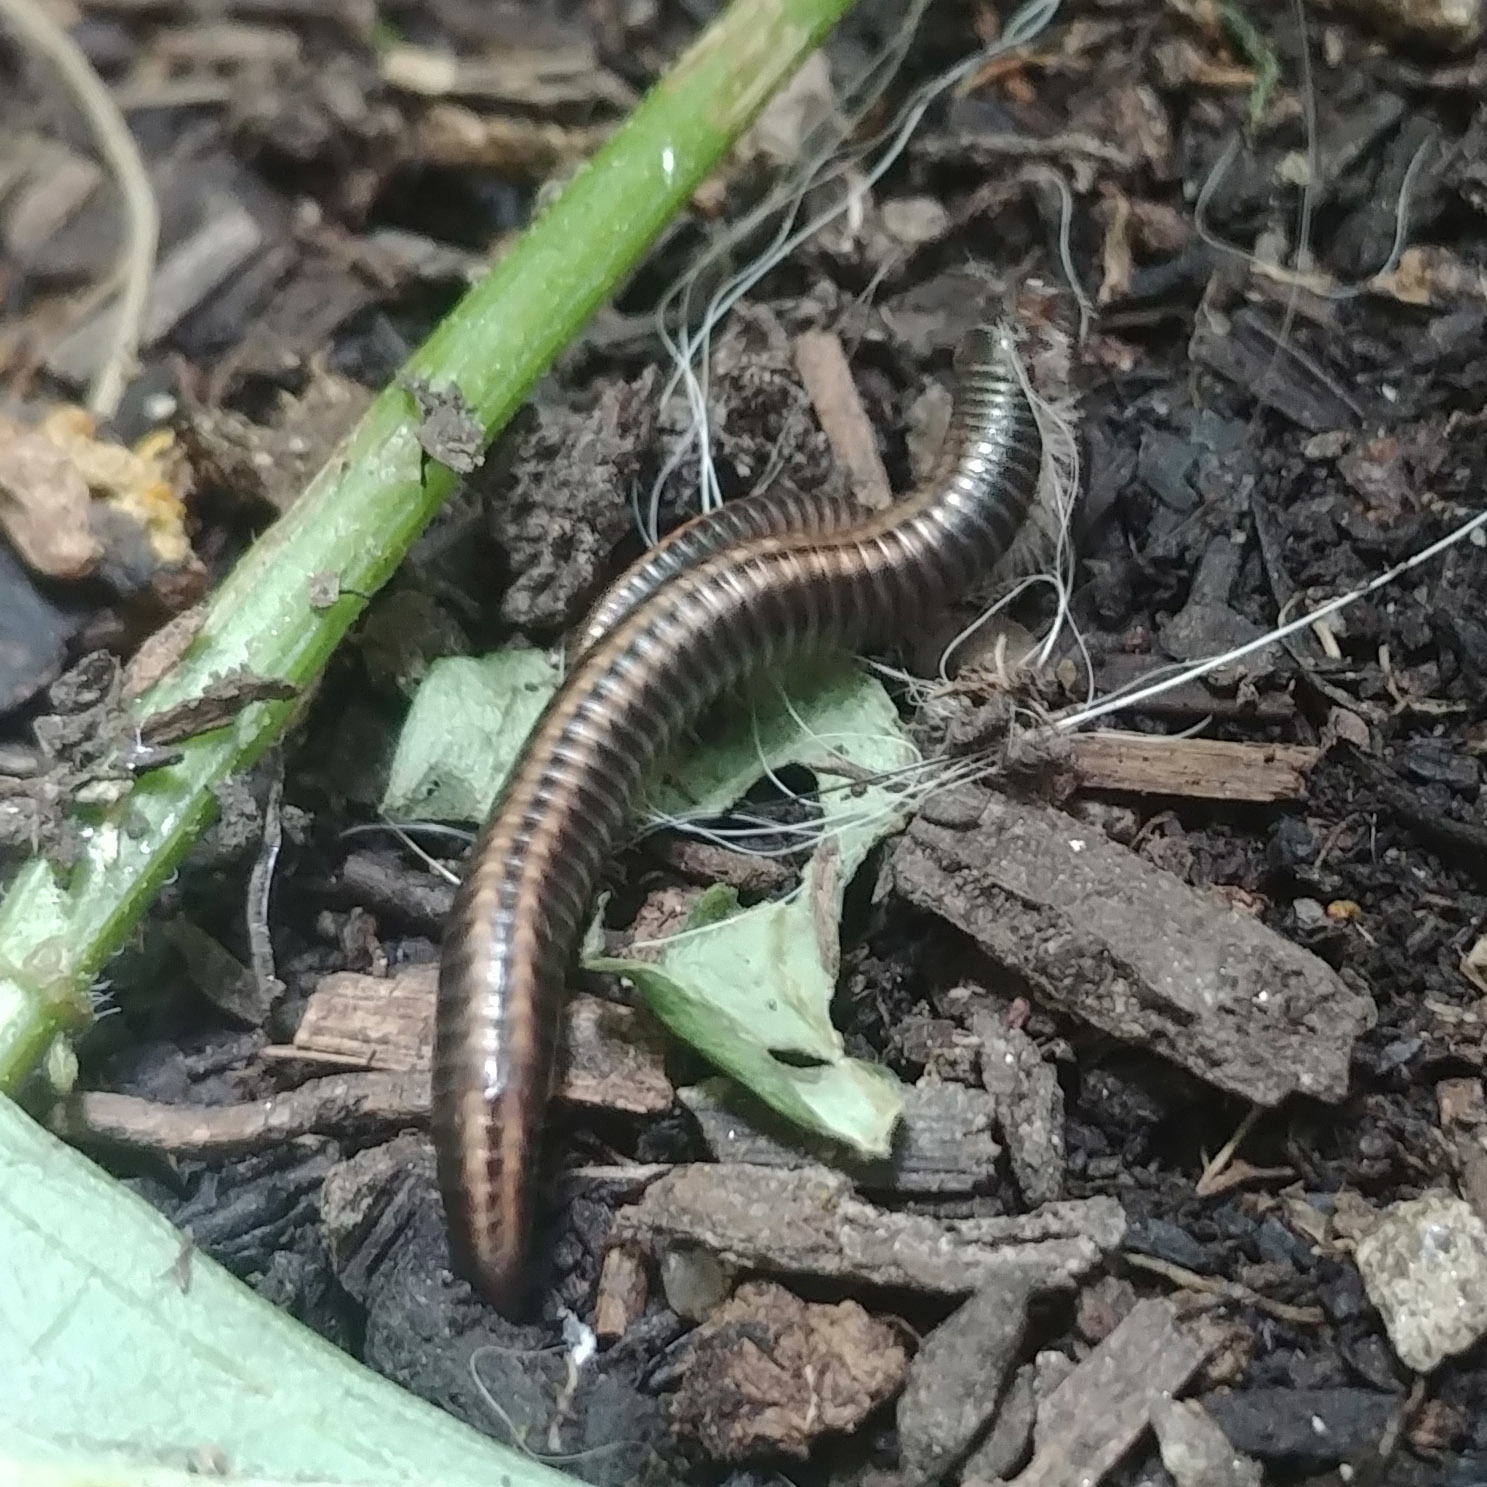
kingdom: Animalia
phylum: Arthropoda
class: Diplopoda
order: Julida
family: Julidae
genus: Ommatoiulus
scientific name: Ommatoiulus sabulosus
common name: Striped millipede
